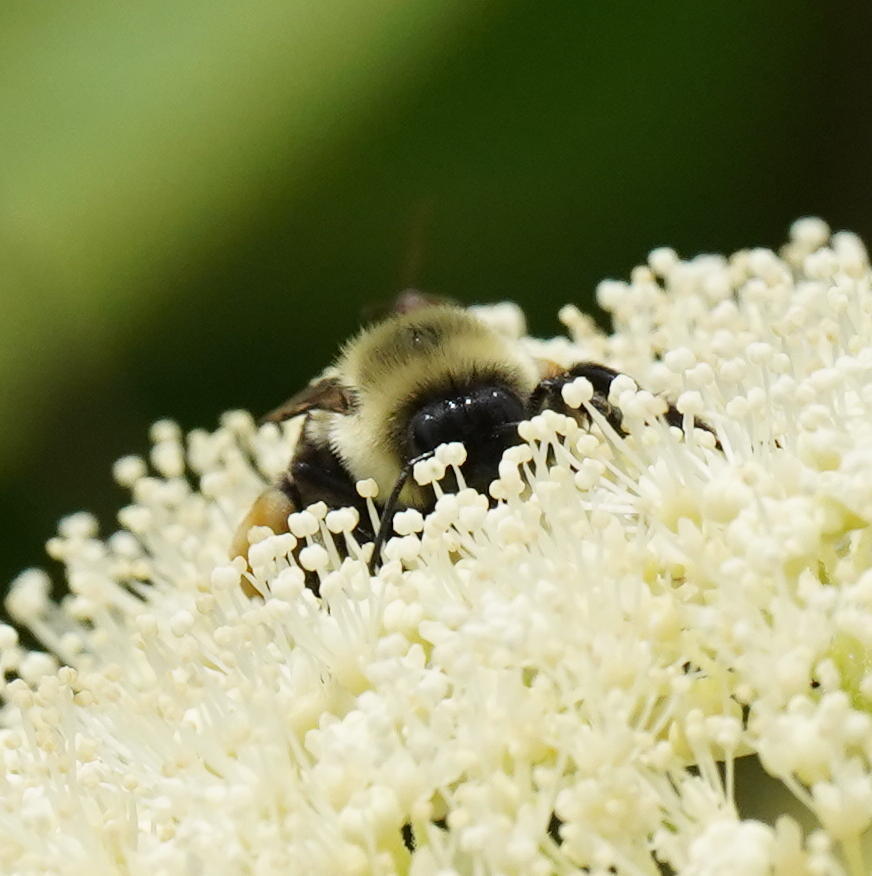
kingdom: Animalia
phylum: Arthropoda
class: Insecta
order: Hymenoptera
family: Apidae
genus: Bombus
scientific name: Bombus impatiens
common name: Common eastern bumble bee
